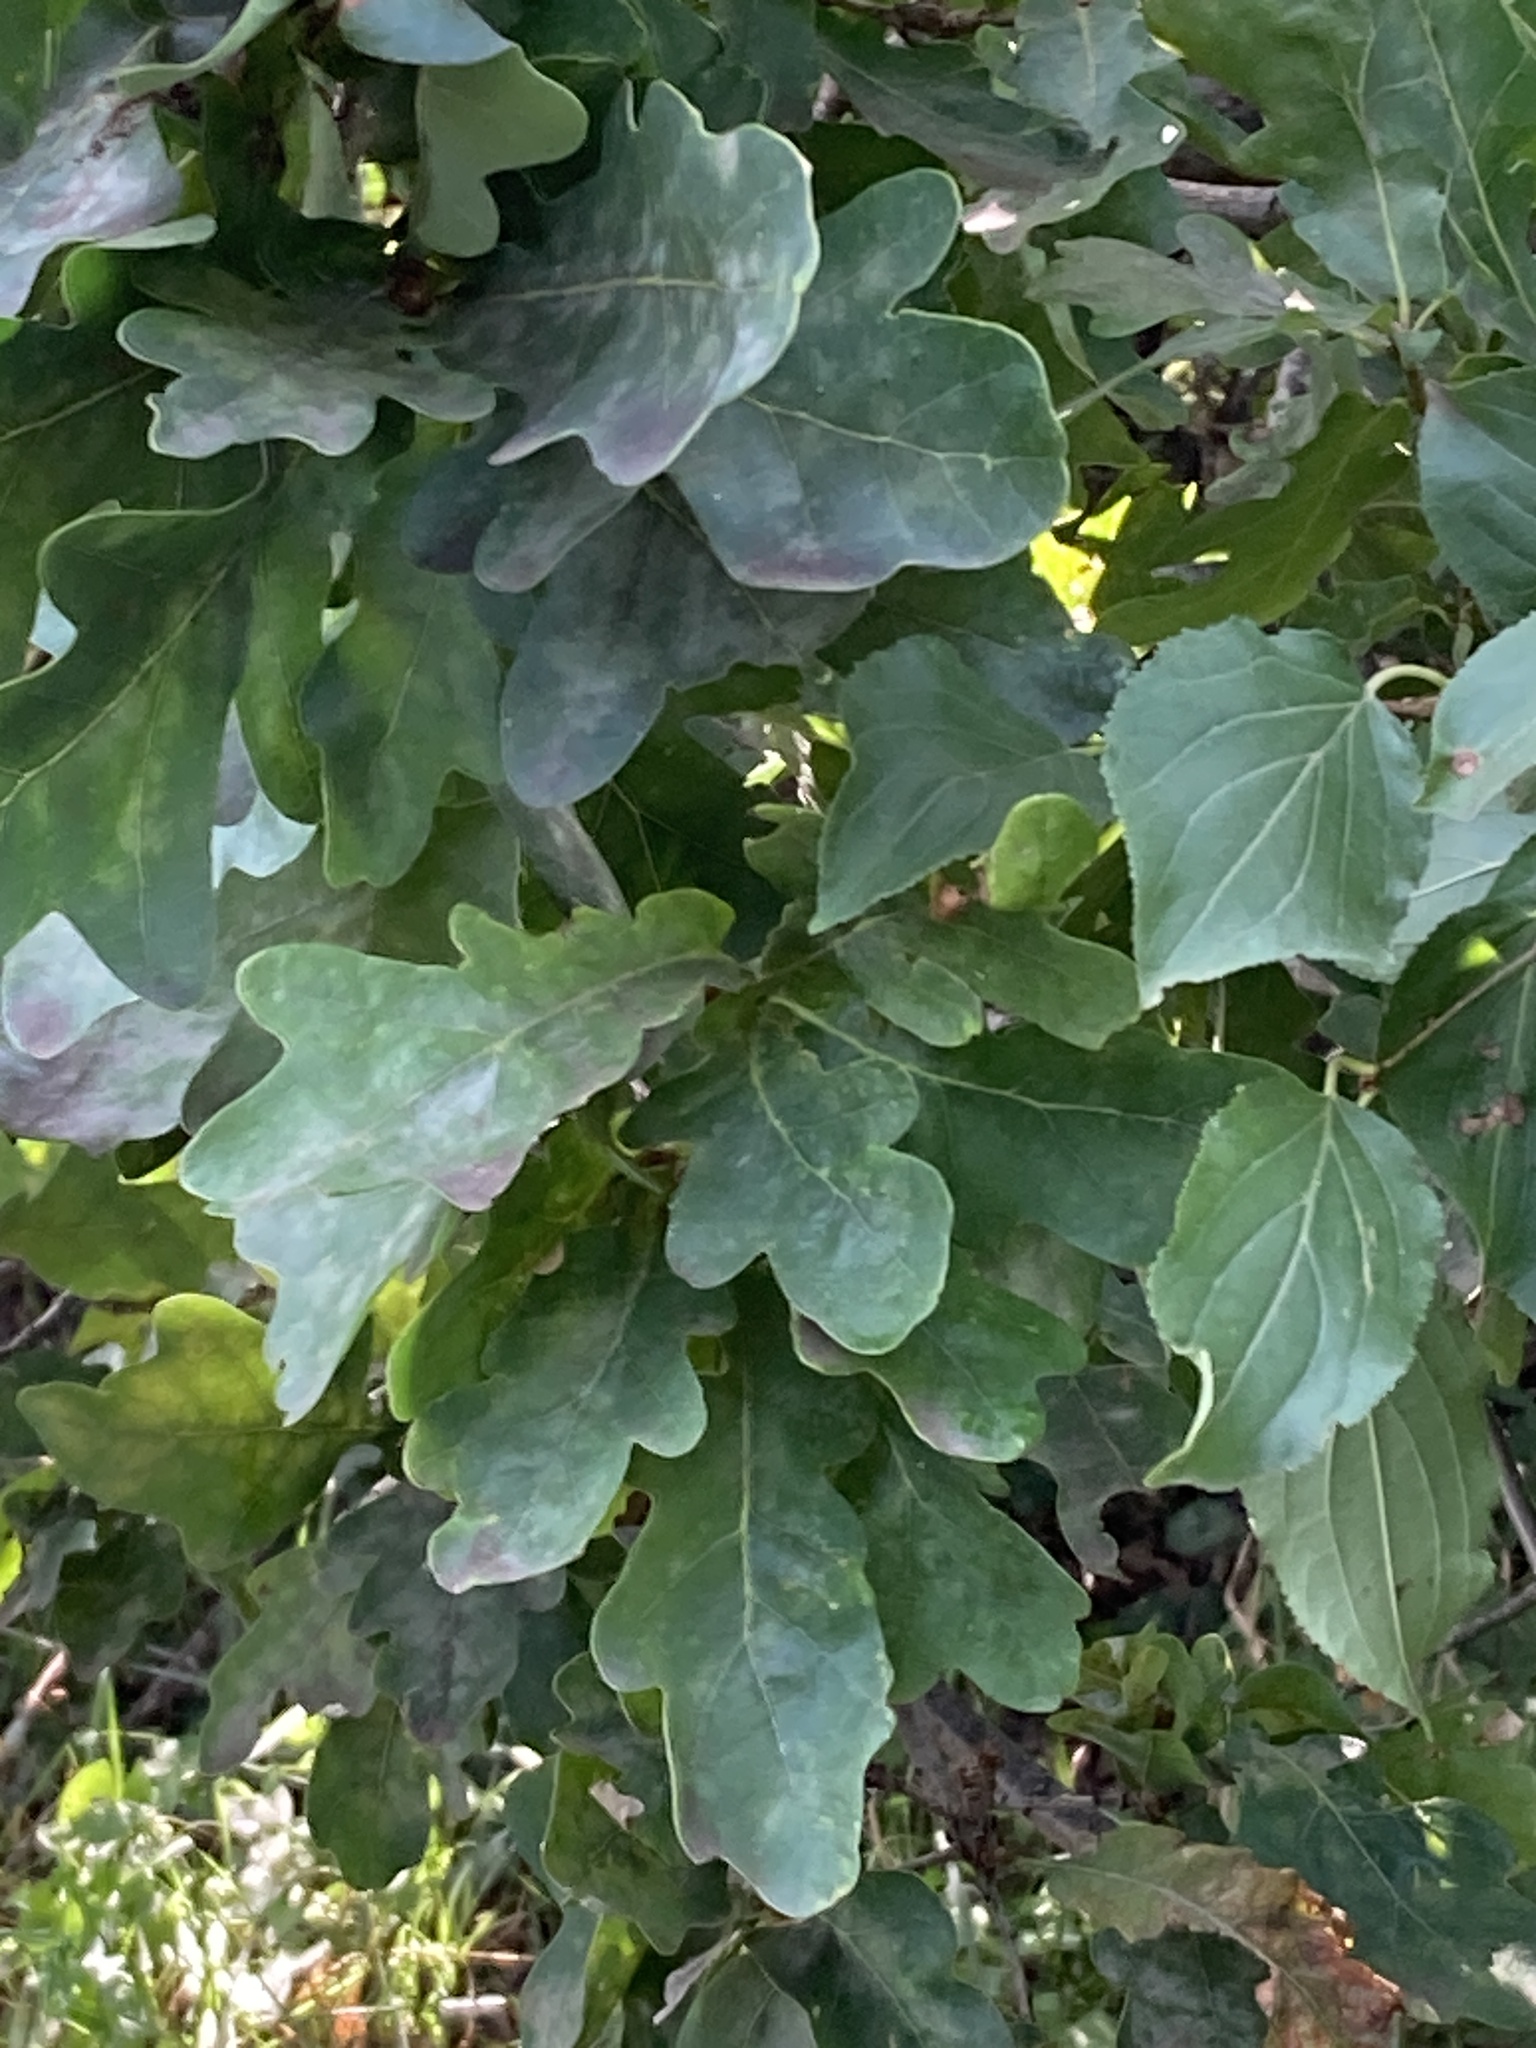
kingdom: Plantae
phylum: Tracheophyta
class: Magnoliopsida
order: Fagales
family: Fagaceae
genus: Quercus
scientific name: Quercus robur
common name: Pedunculate oak
